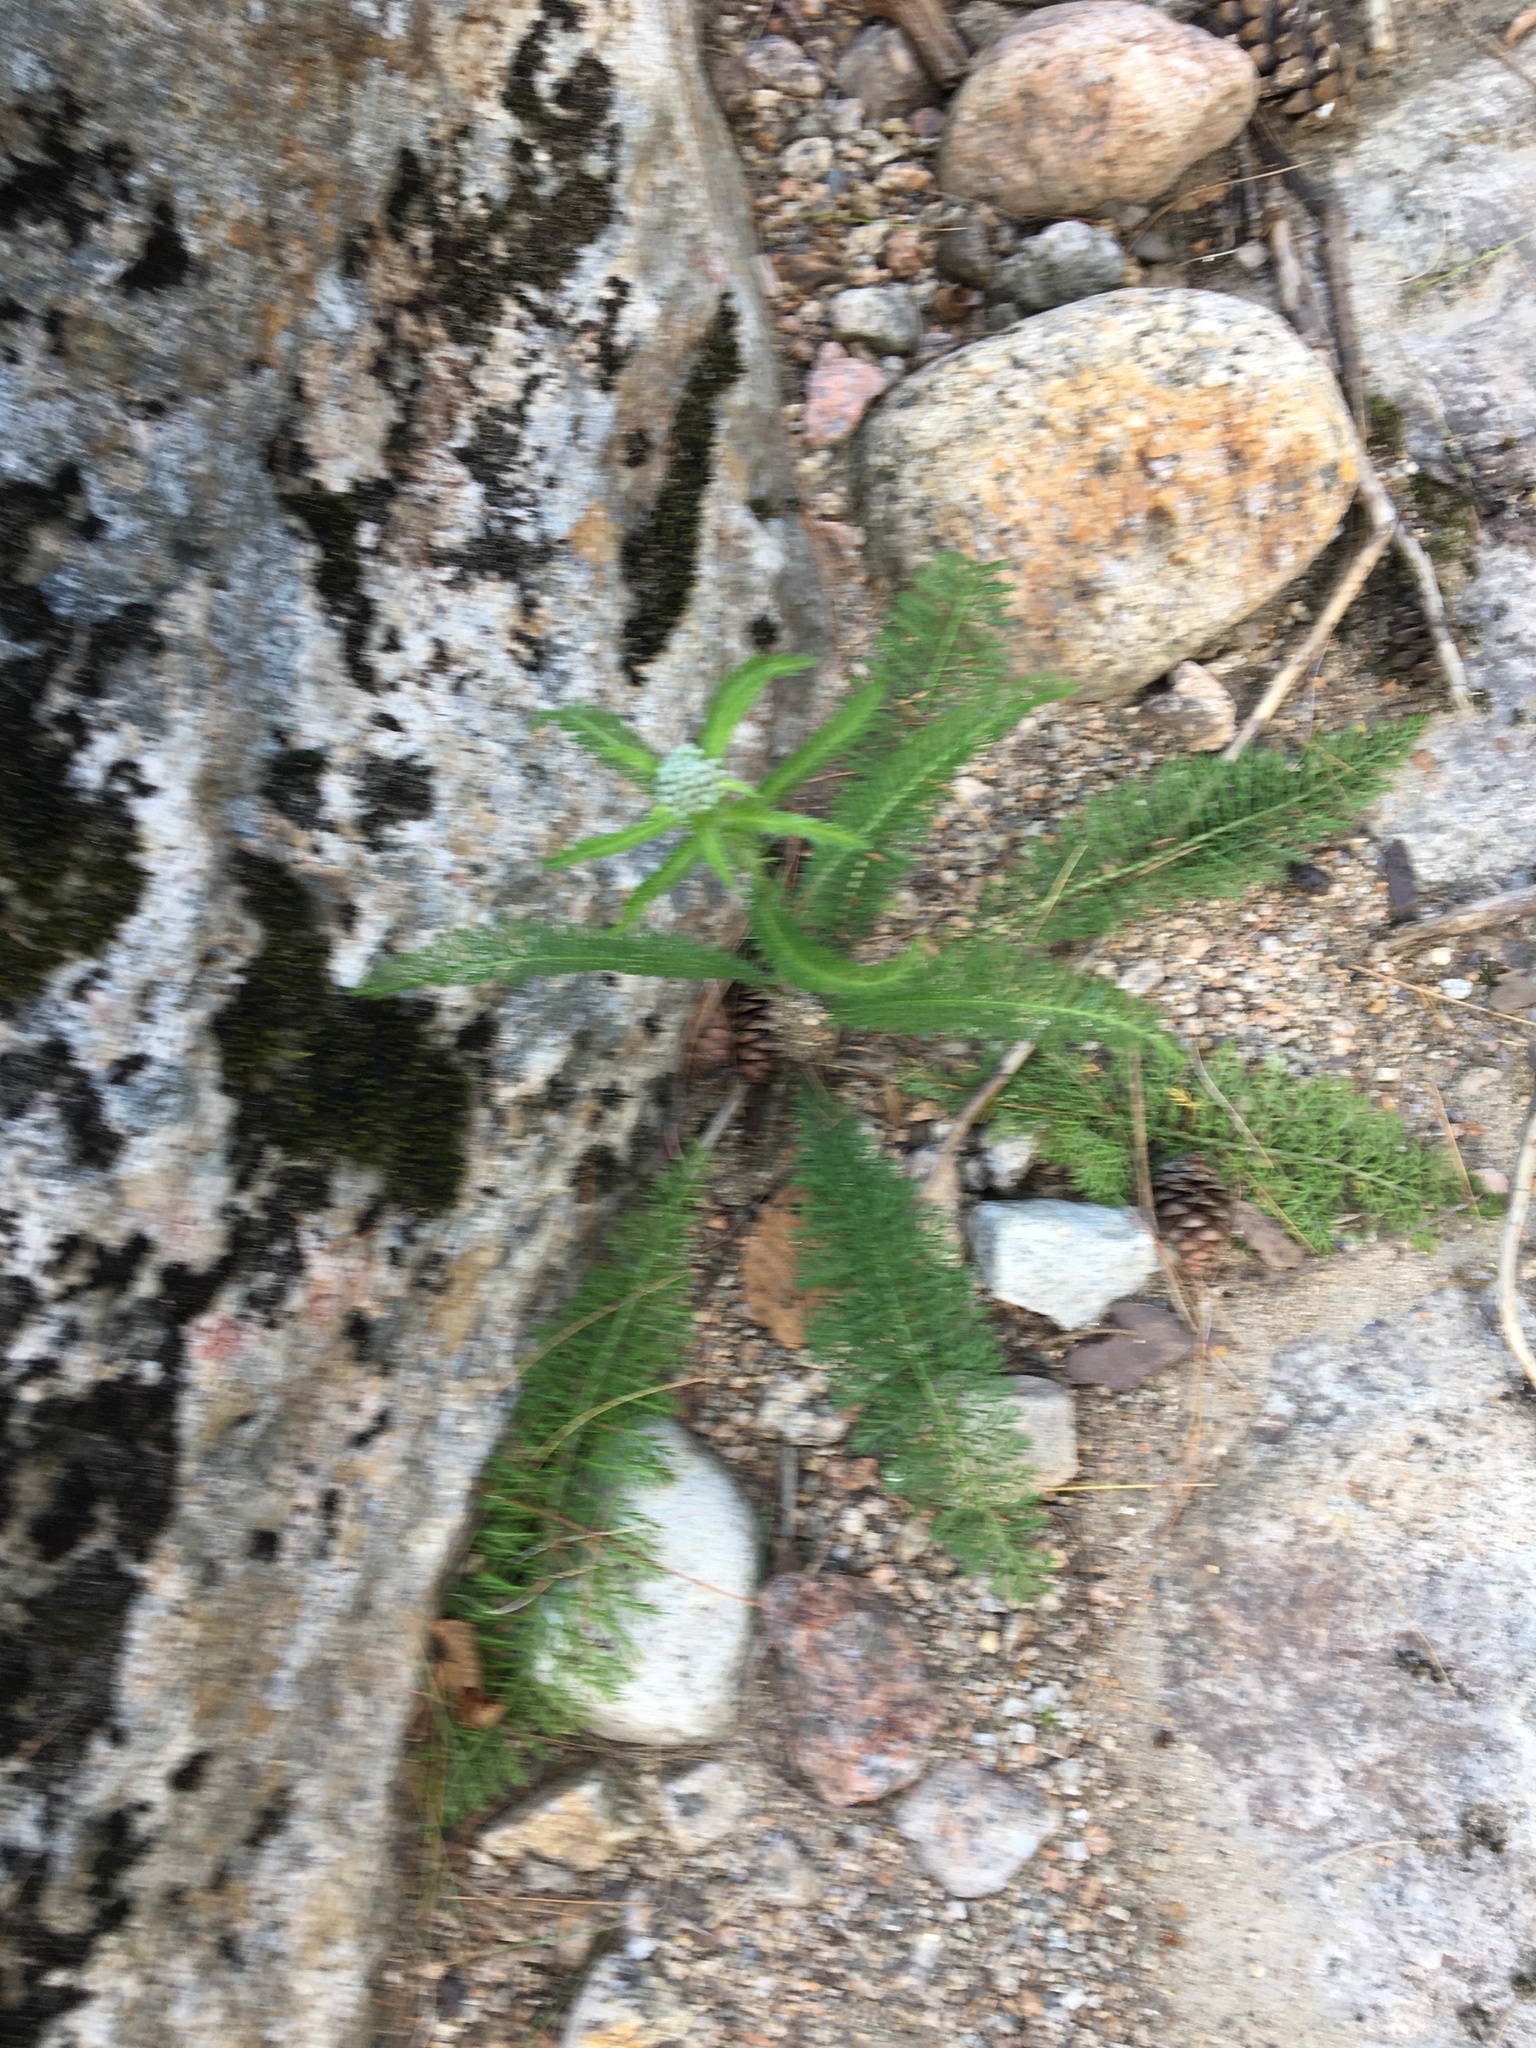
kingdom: Plantae
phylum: Tracheophyta
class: Magnoliopsida
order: Asterales
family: Asteraceae
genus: Achillea
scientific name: Achillea millefolium
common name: Yarrow
